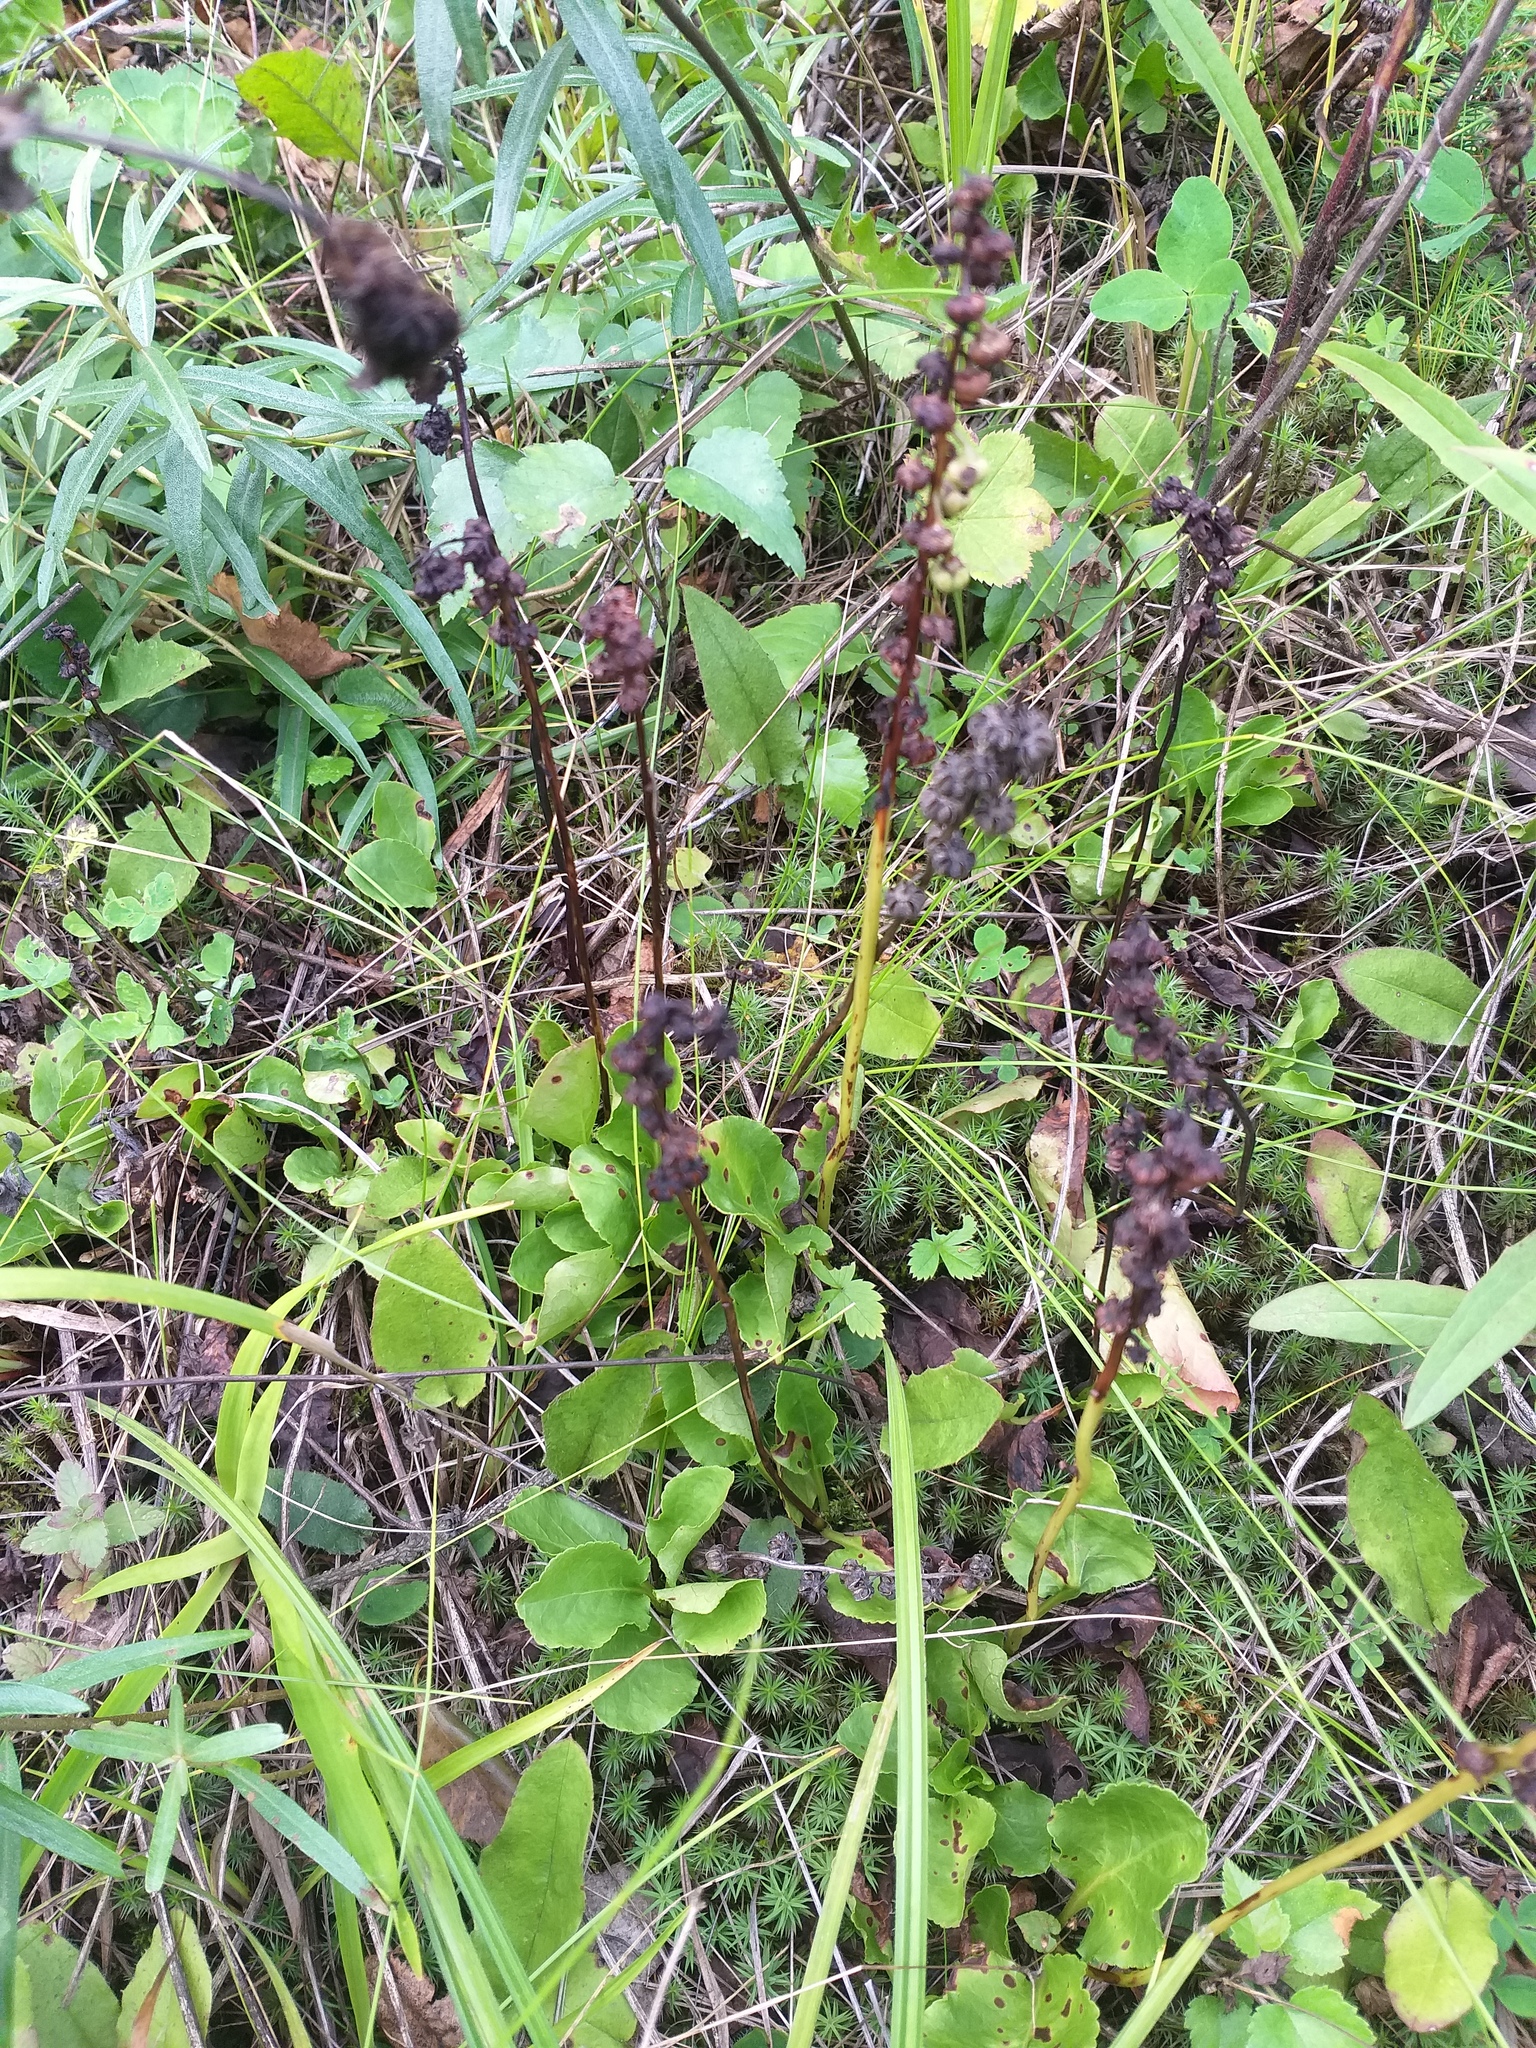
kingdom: Plantae
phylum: Tracheophyta
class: Magnoliopsida
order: Ericales
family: Ericaceae
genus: Pyrola
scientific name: Pyrola minor
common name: Common wintergreen
